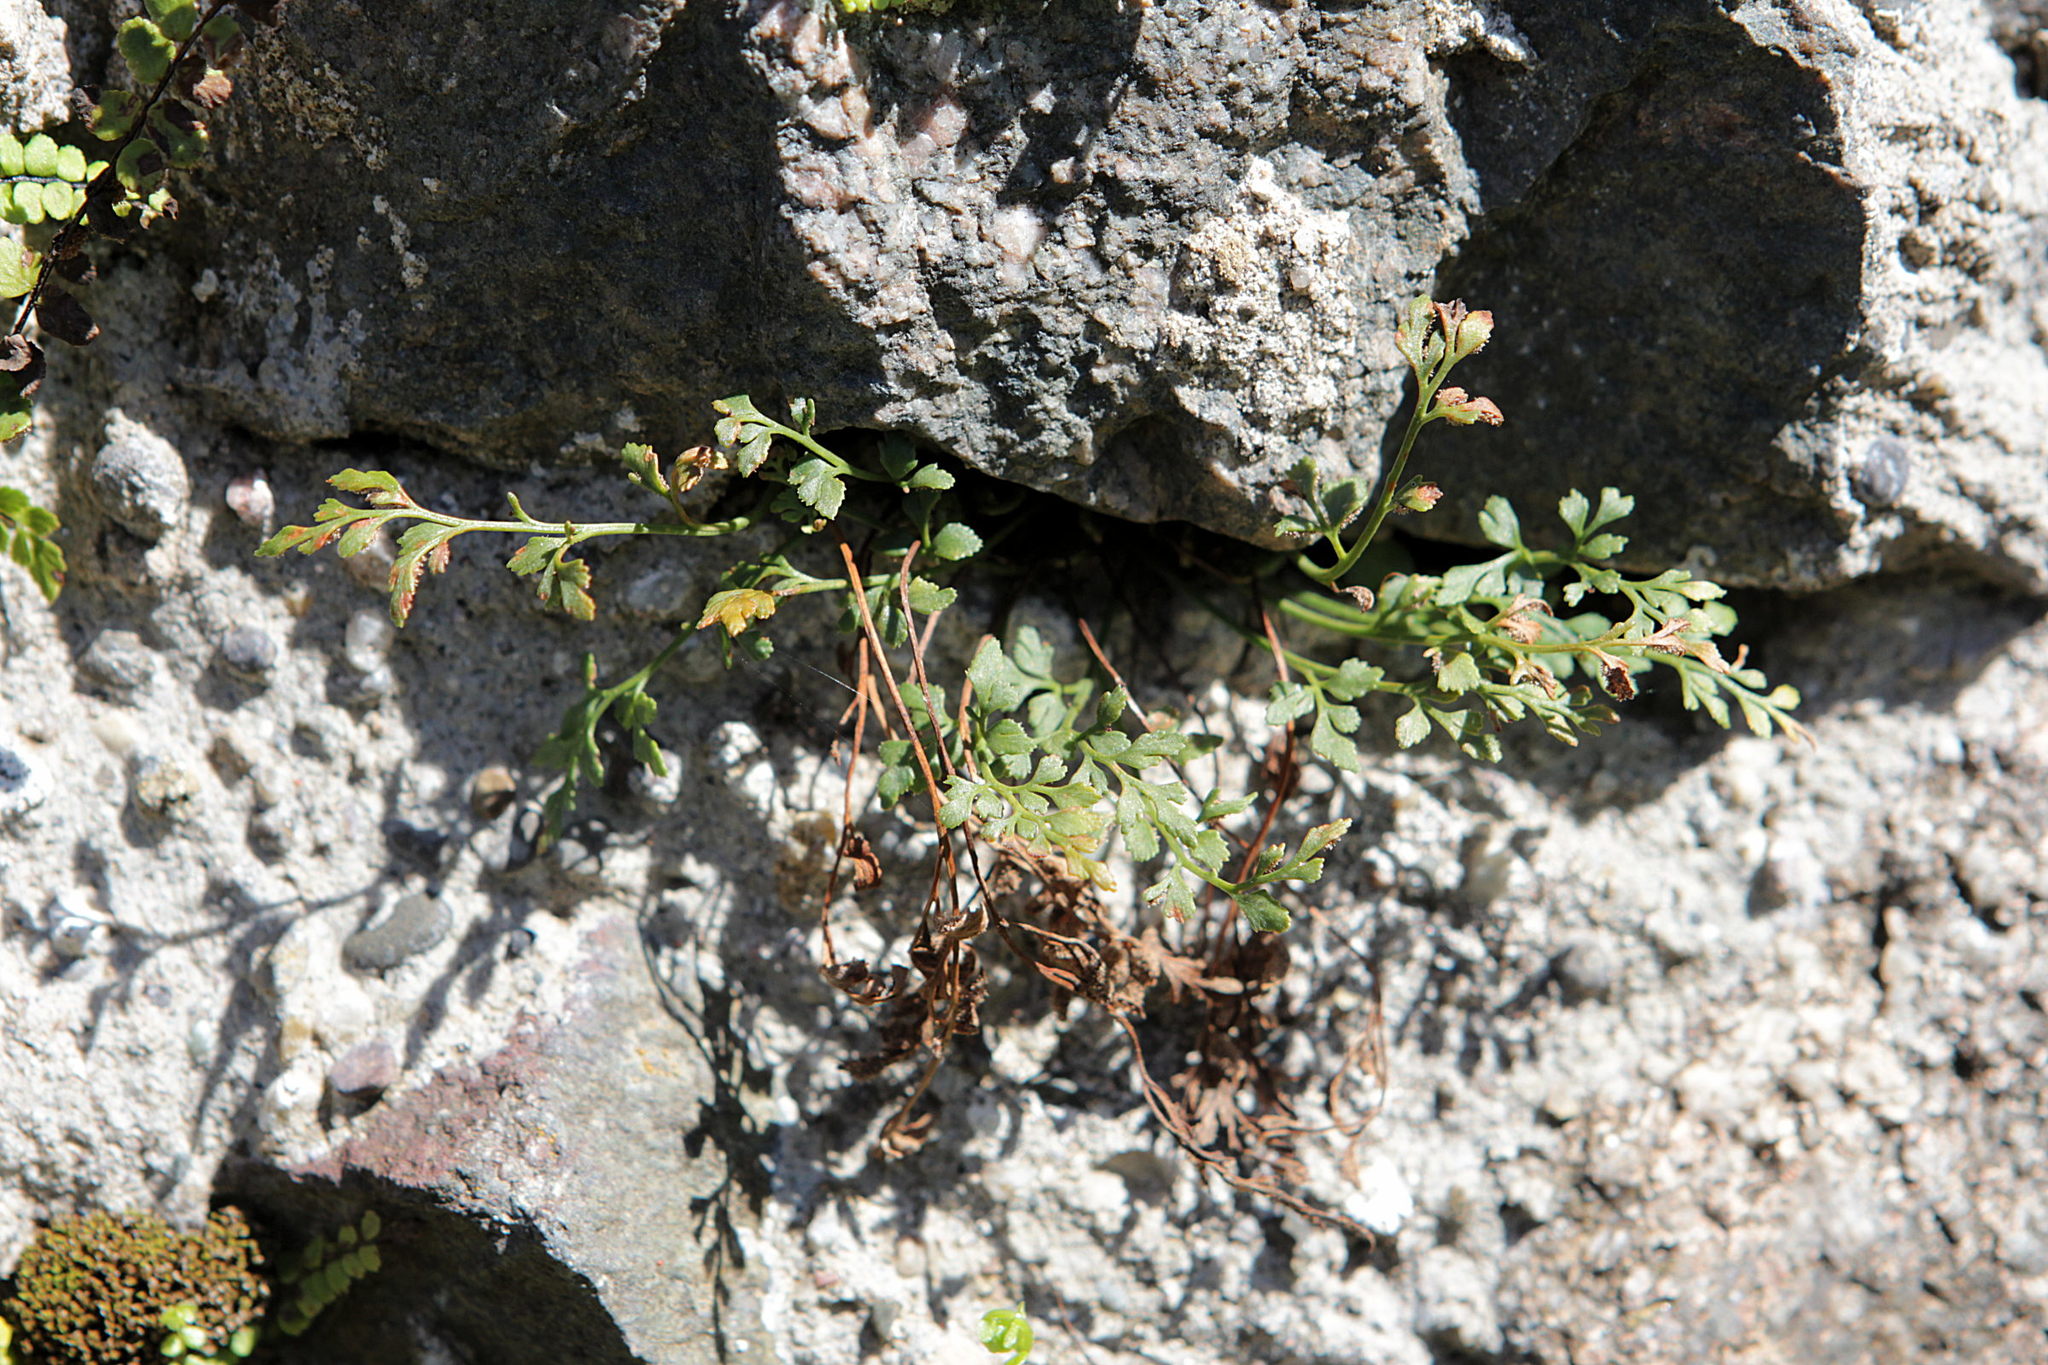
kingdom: Plantae
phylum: Tracheophyta
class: Polypodiopsida
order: Polypodiales
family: Aspleniaceae
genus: Asplenium
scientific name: Asplenium ruta-muraria
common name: Wall-rue
